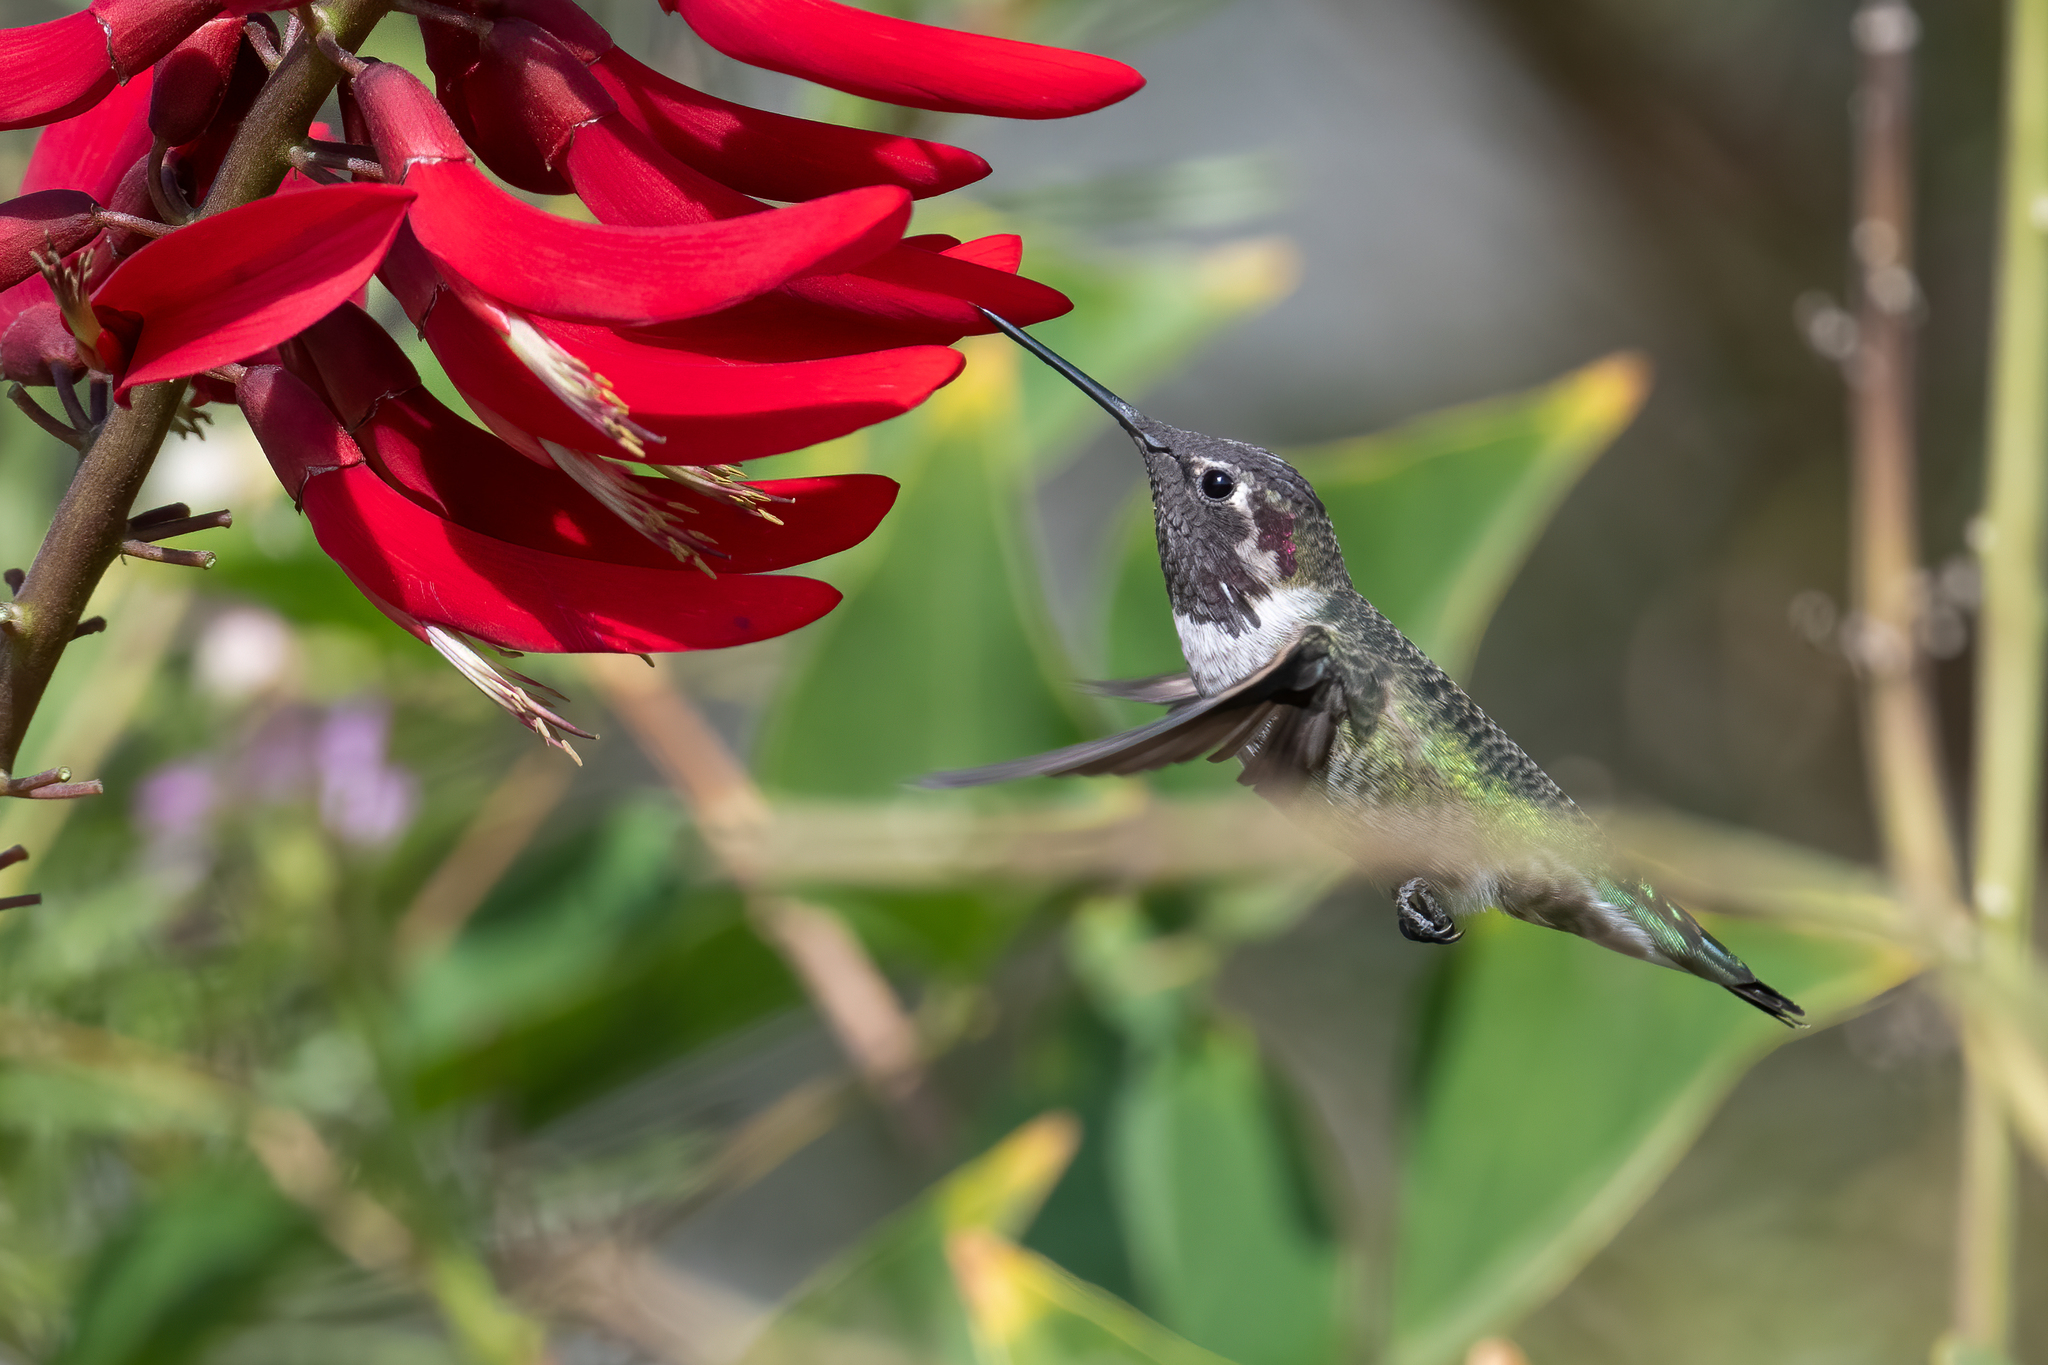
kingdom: Animalia
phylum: Chordata
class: Aves
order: Apodiformes
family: Trochilidae
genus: Calypte
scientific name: Calypte anna
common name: Anna's hummingbird
